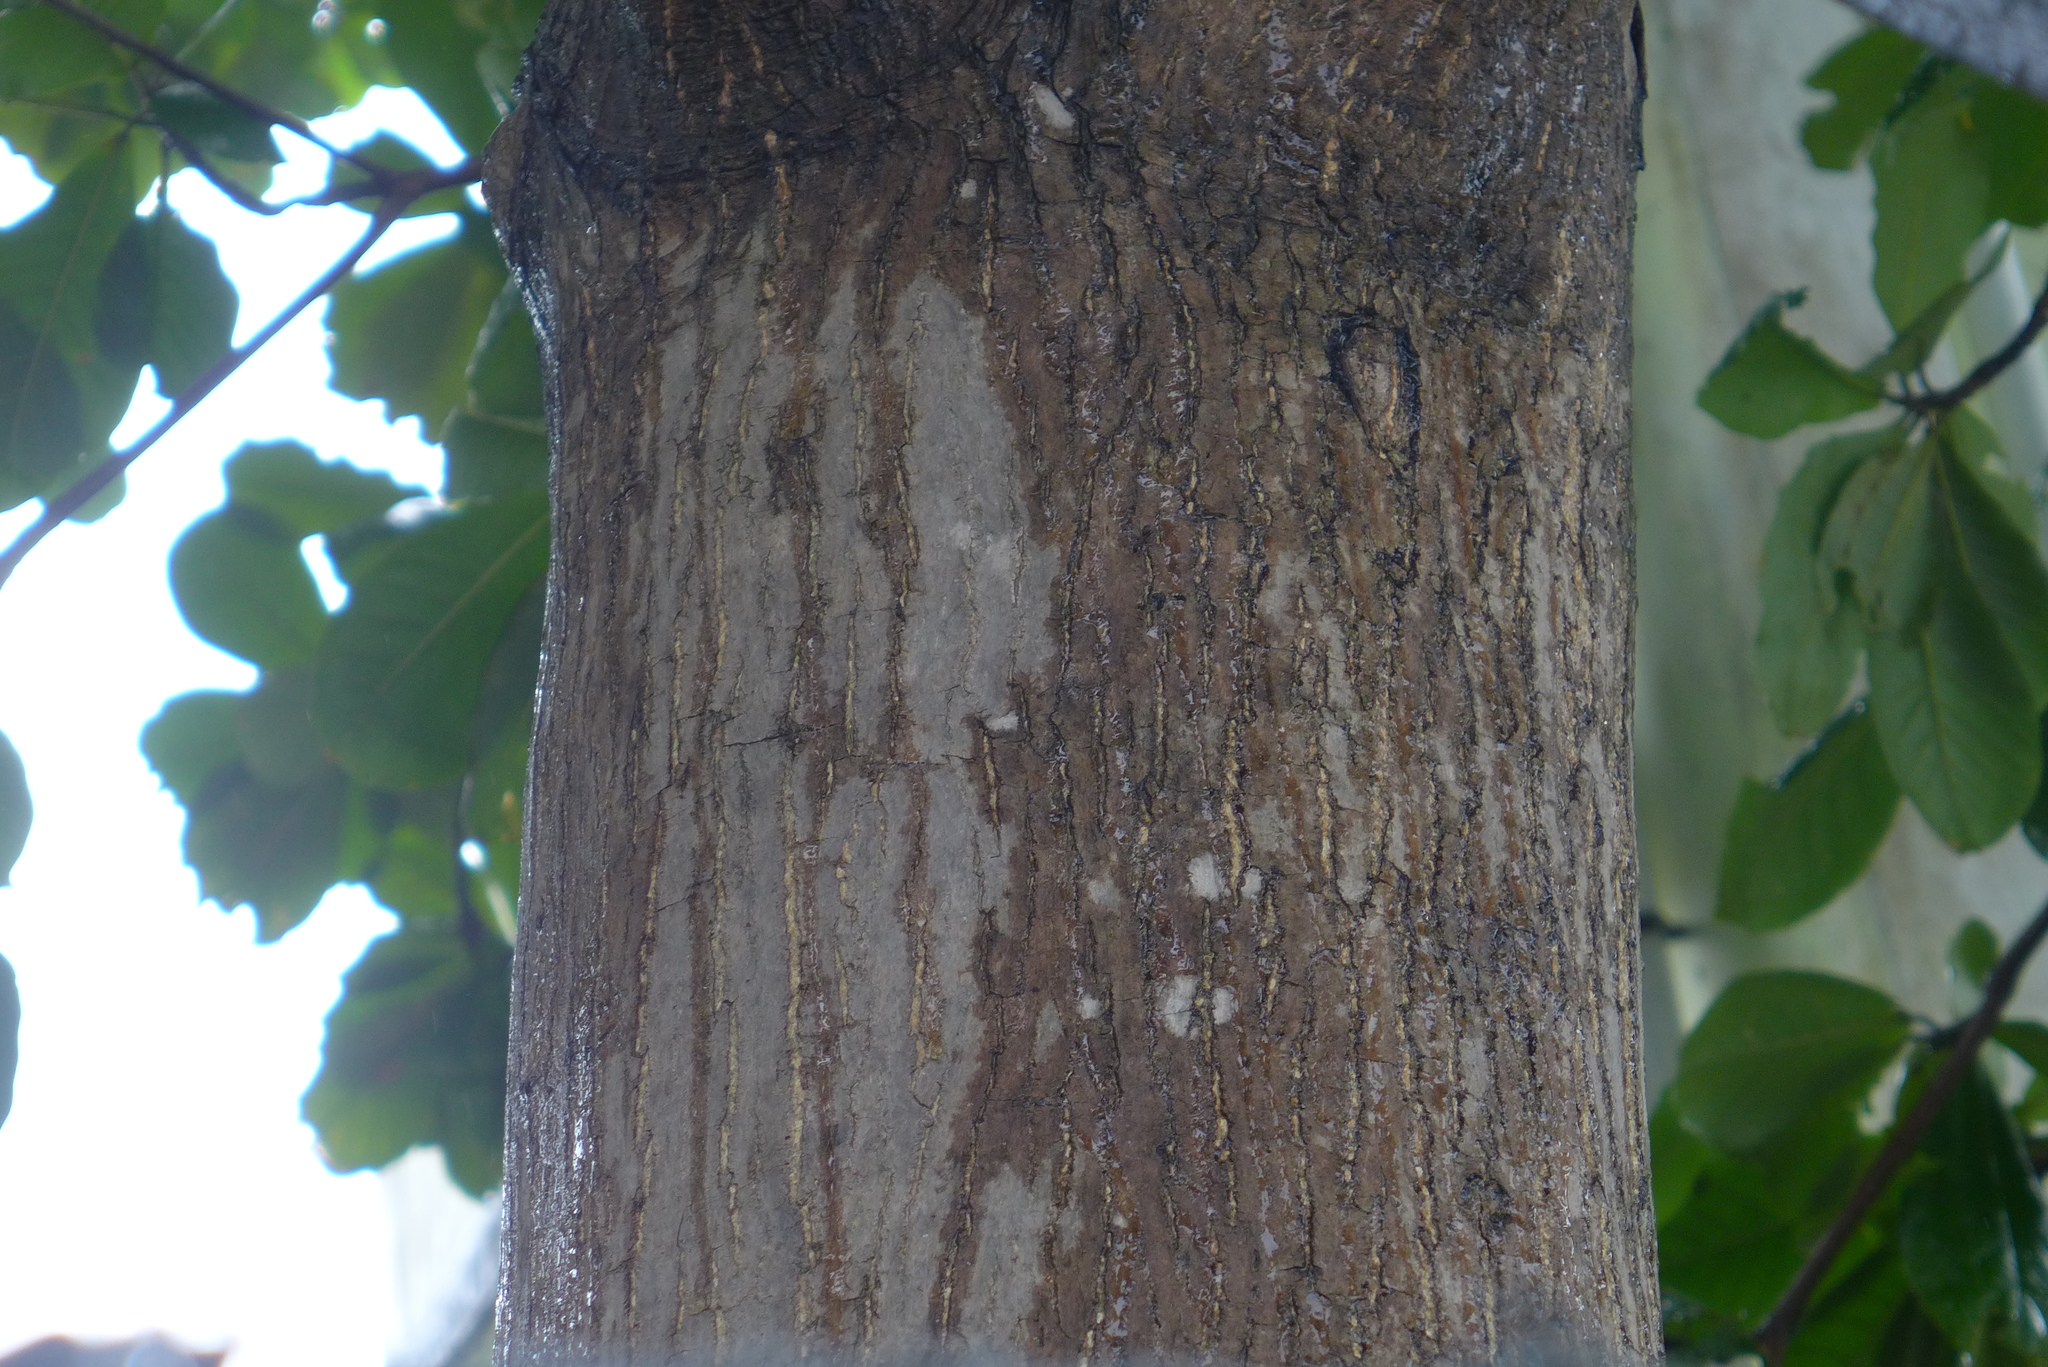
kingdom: Plantae
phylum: Tracheophyta
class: Magnoliopsida
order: Myrtales
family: Combretaceae
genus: Terminalia
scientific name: Terminalia catappa
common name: Tropical almond
